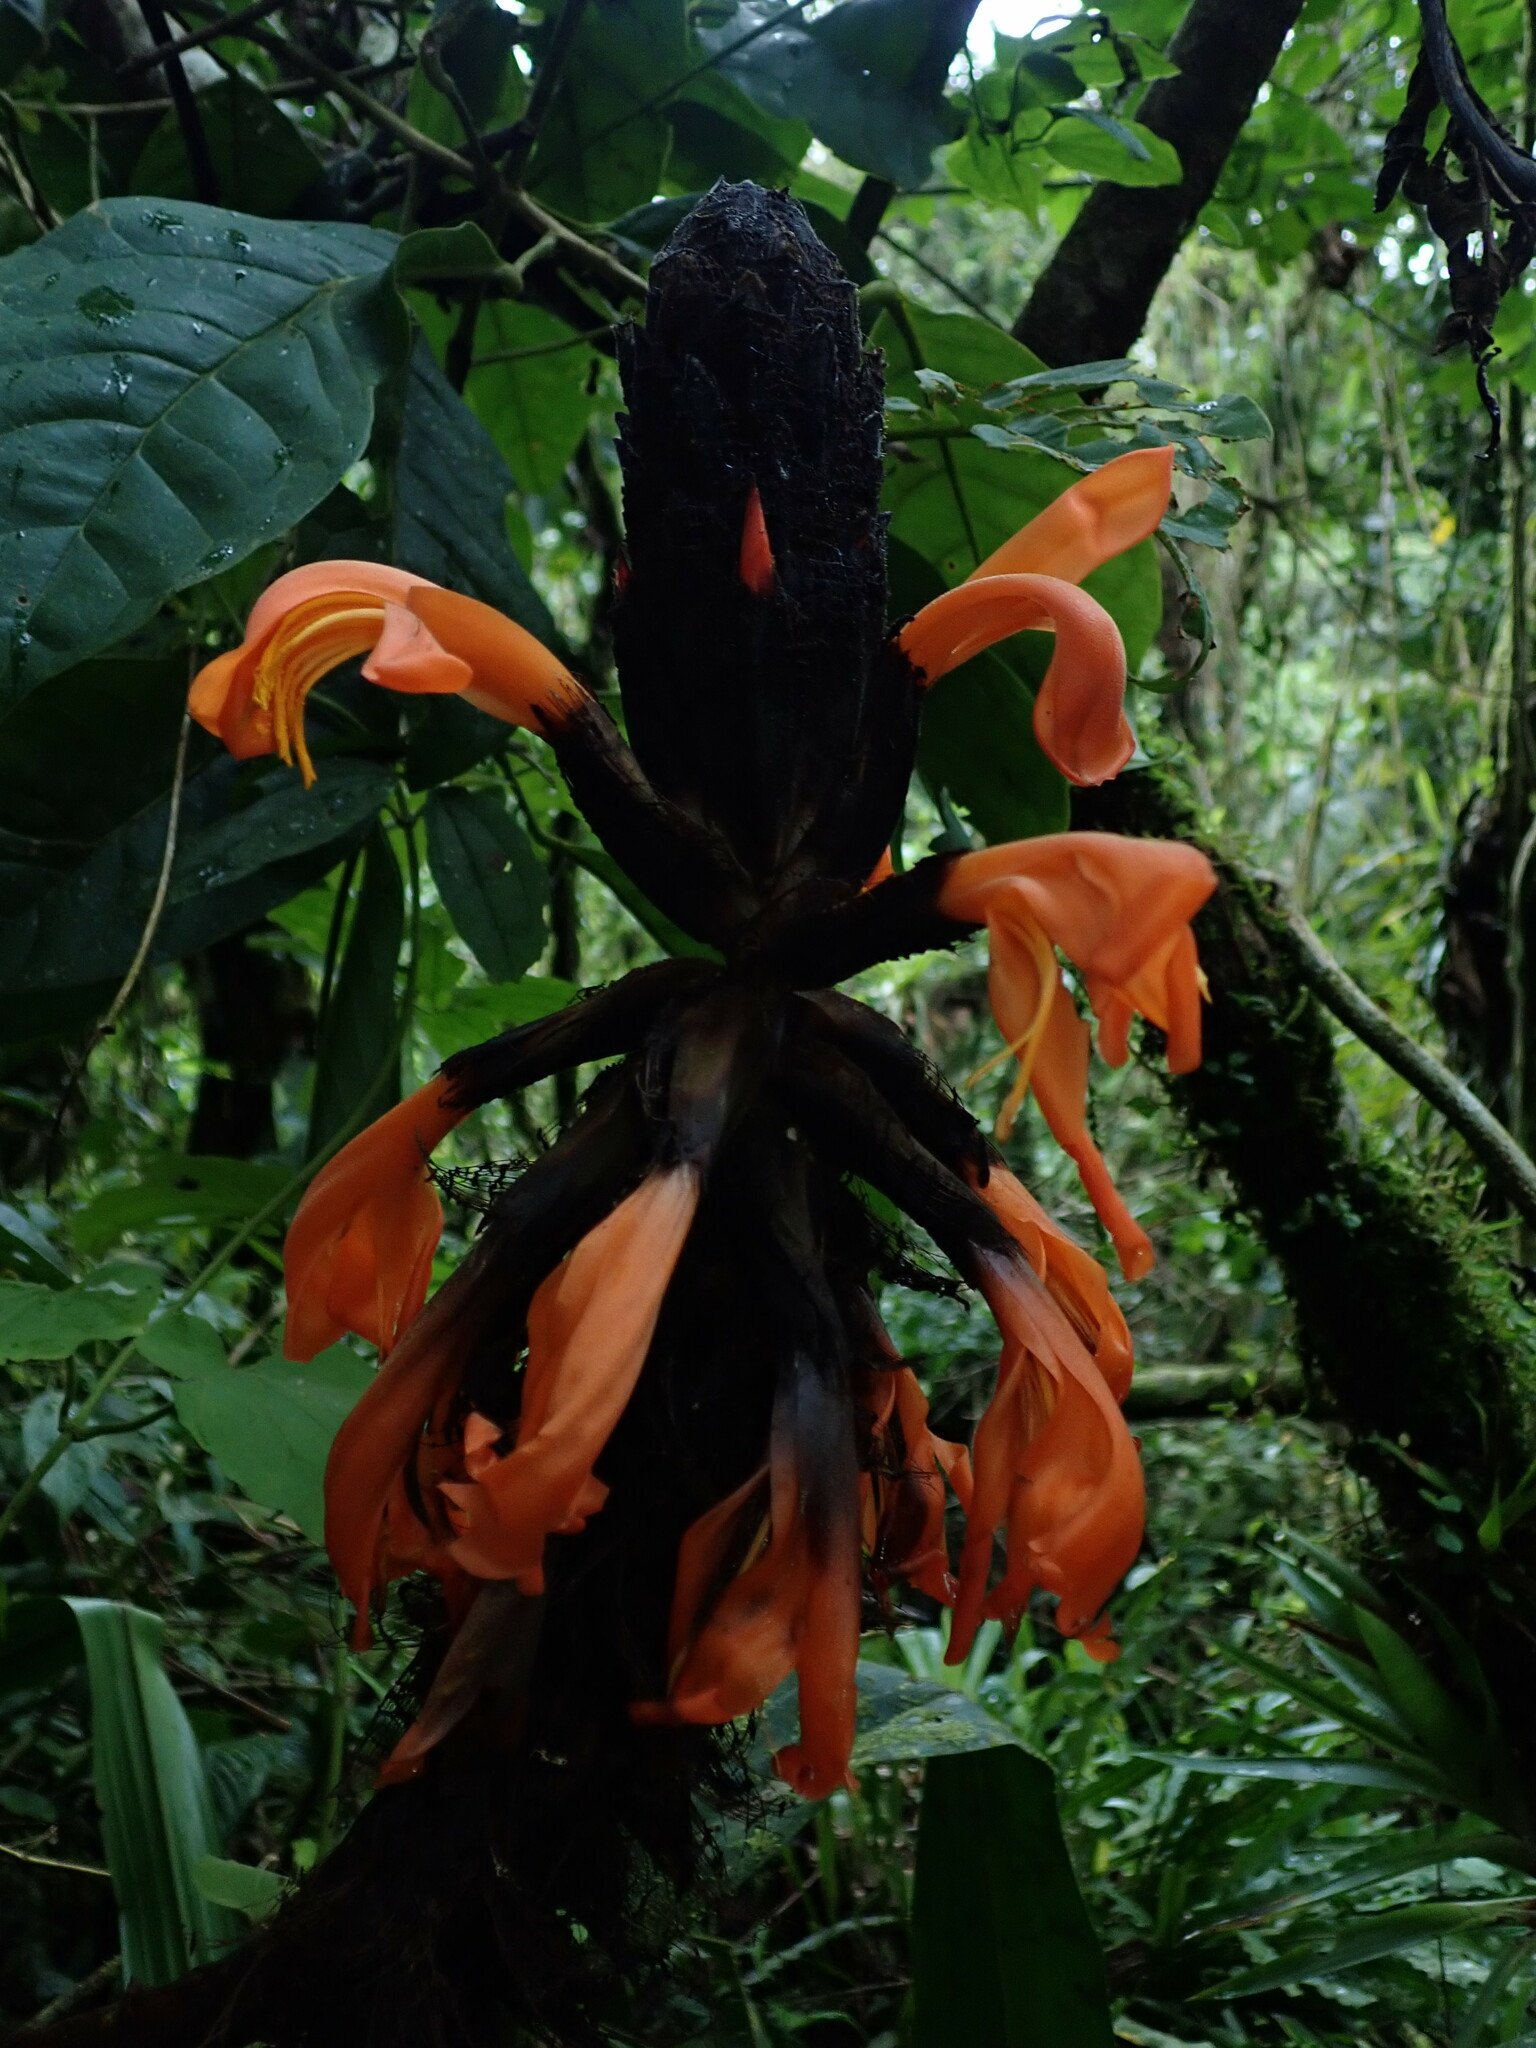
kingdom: Plantae
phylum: Tracheophyta
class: Liliopsida
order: Poales
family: Bromeliaceae
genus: Pitcairnia
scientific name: Pitcairnia bakeri
